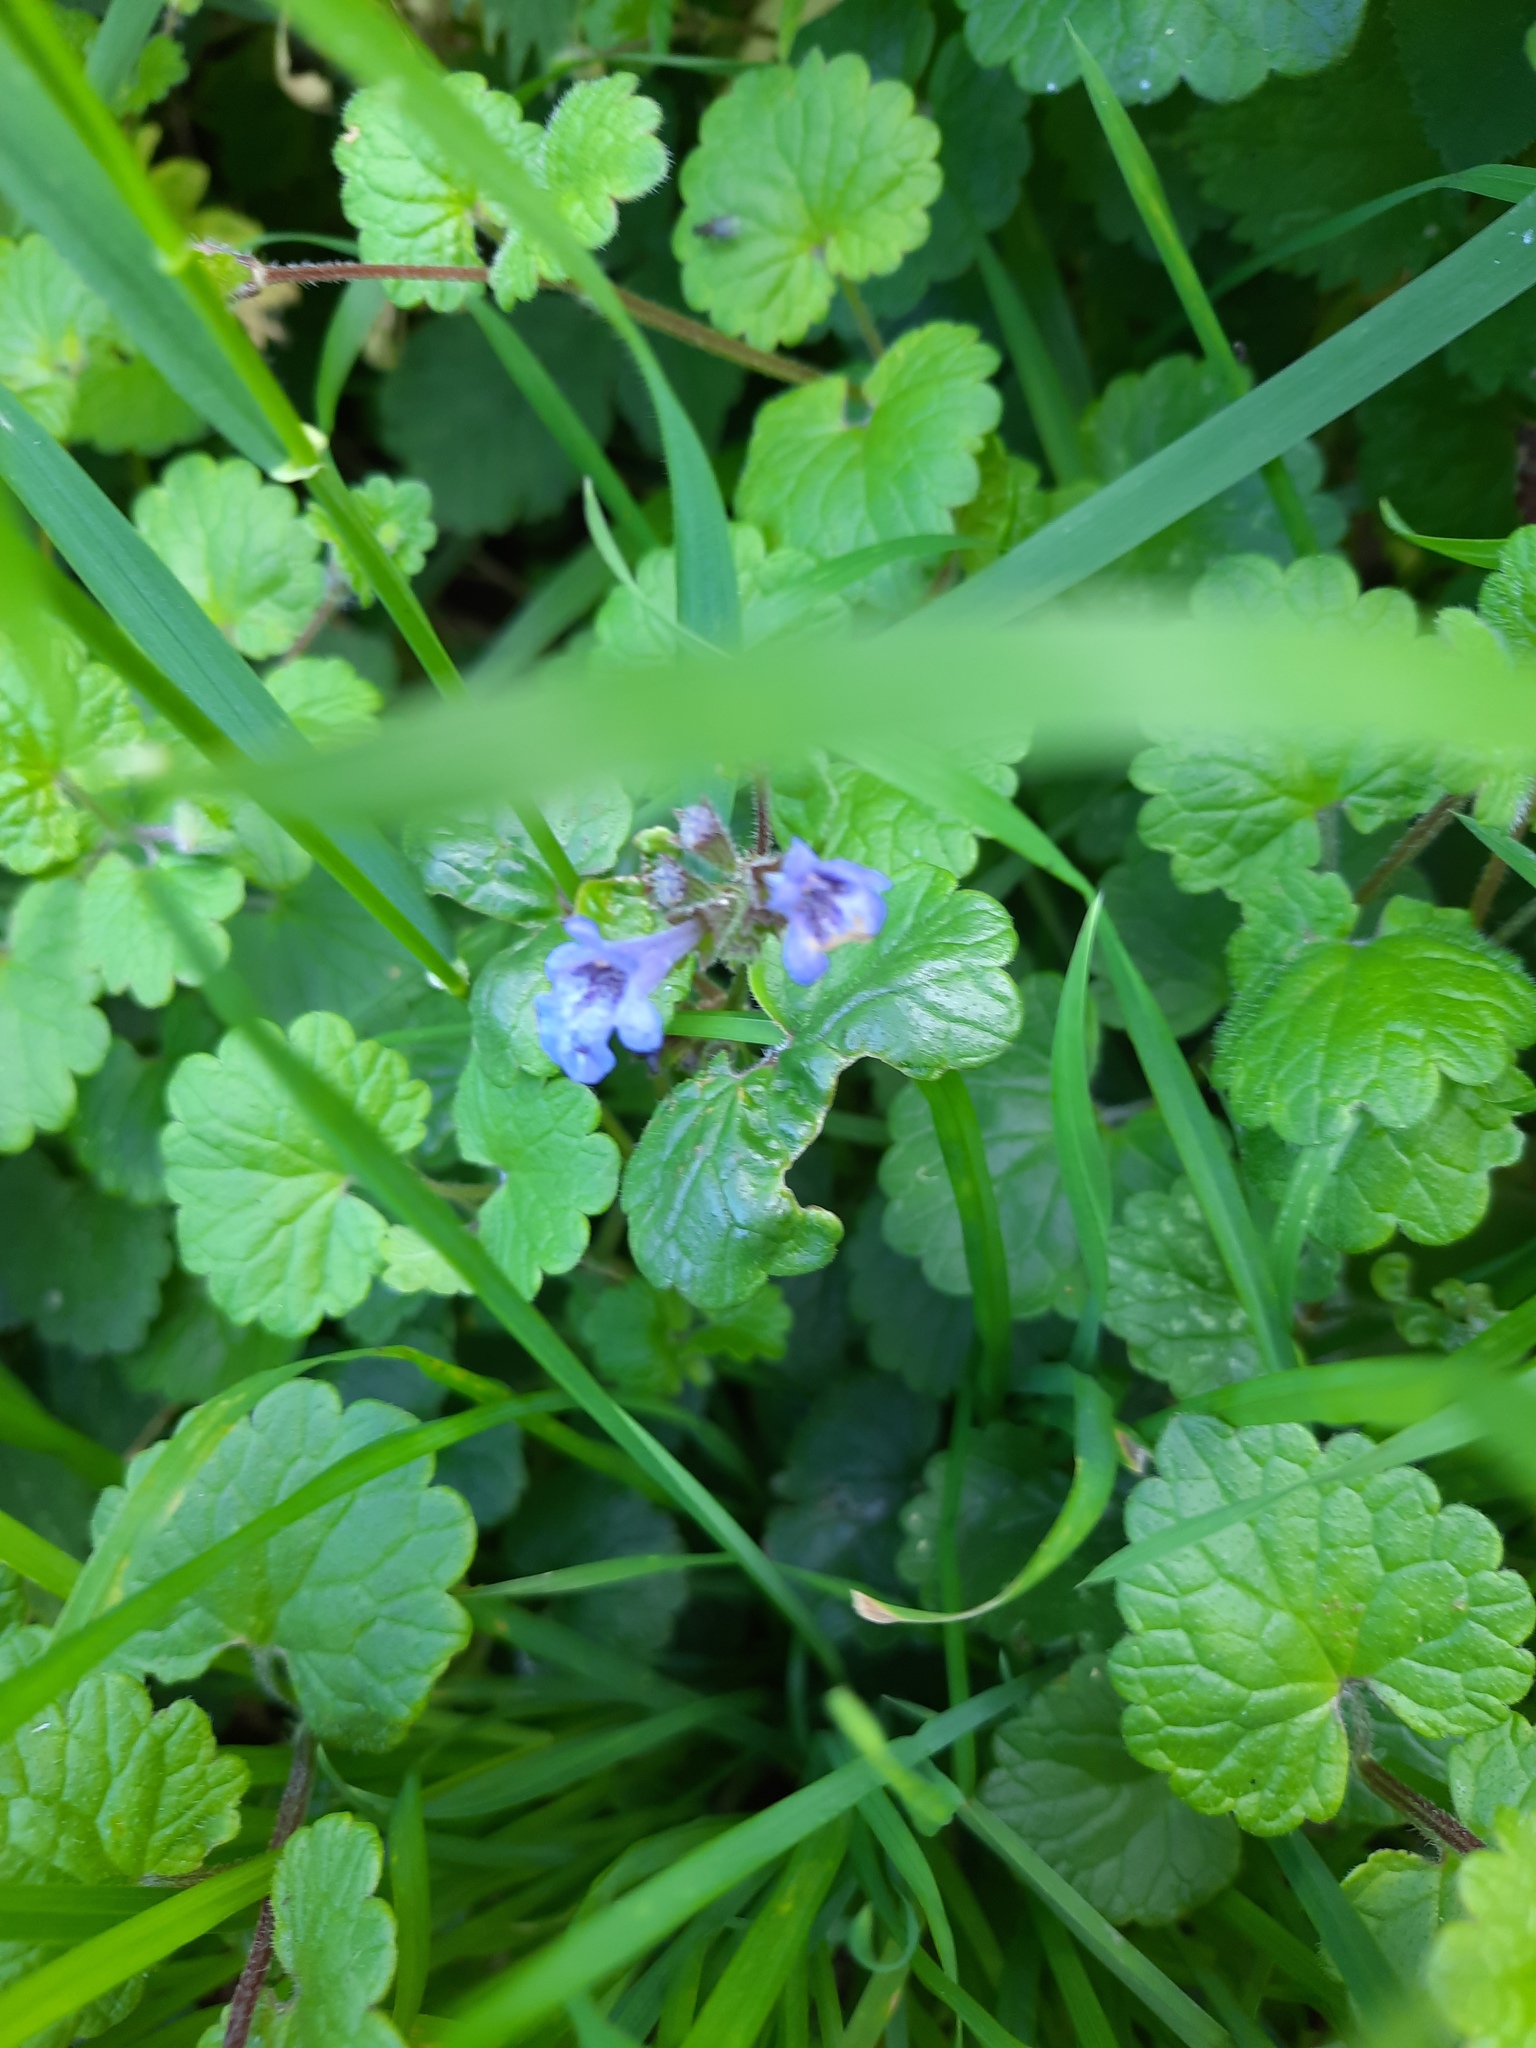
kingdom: Plantae
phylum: Tracheophyta
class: Magnoliopsida
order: Lamiales
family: Lamiaceae
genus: Glechoma
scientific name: Glechoma hederacea
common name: Ground ivy
